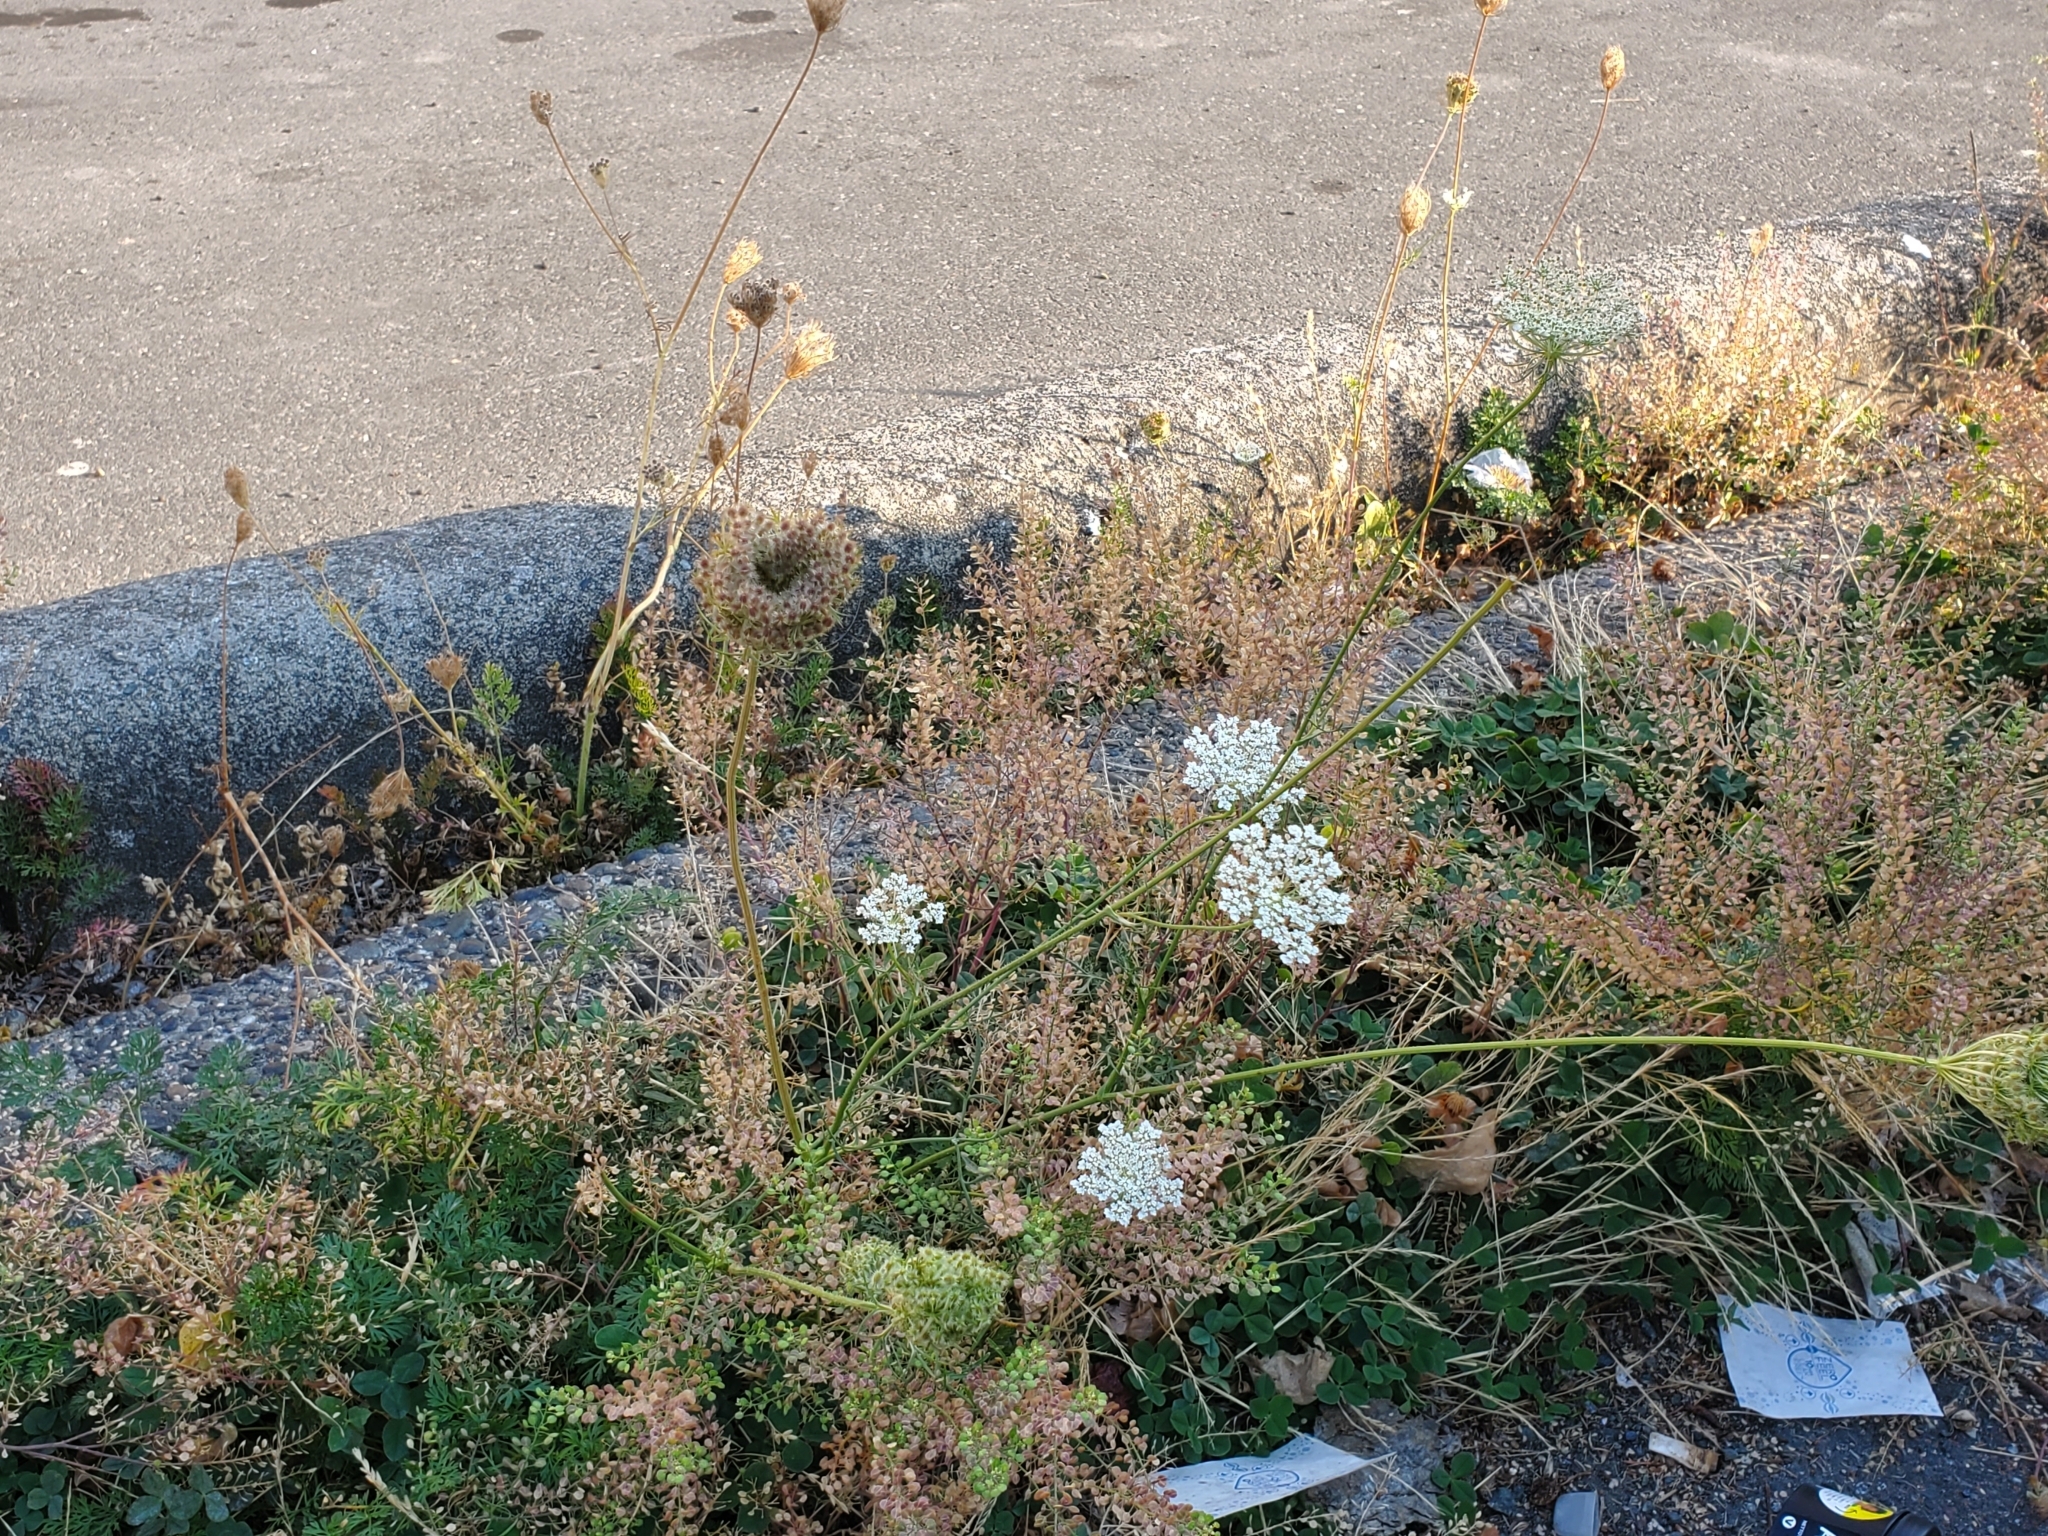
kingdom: Plantae
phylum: Tracheophyta
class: Magnoliopsida
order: Apiales
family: Apiaceae
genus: Daucus
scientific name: Daucus carota
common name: Wild carrot
